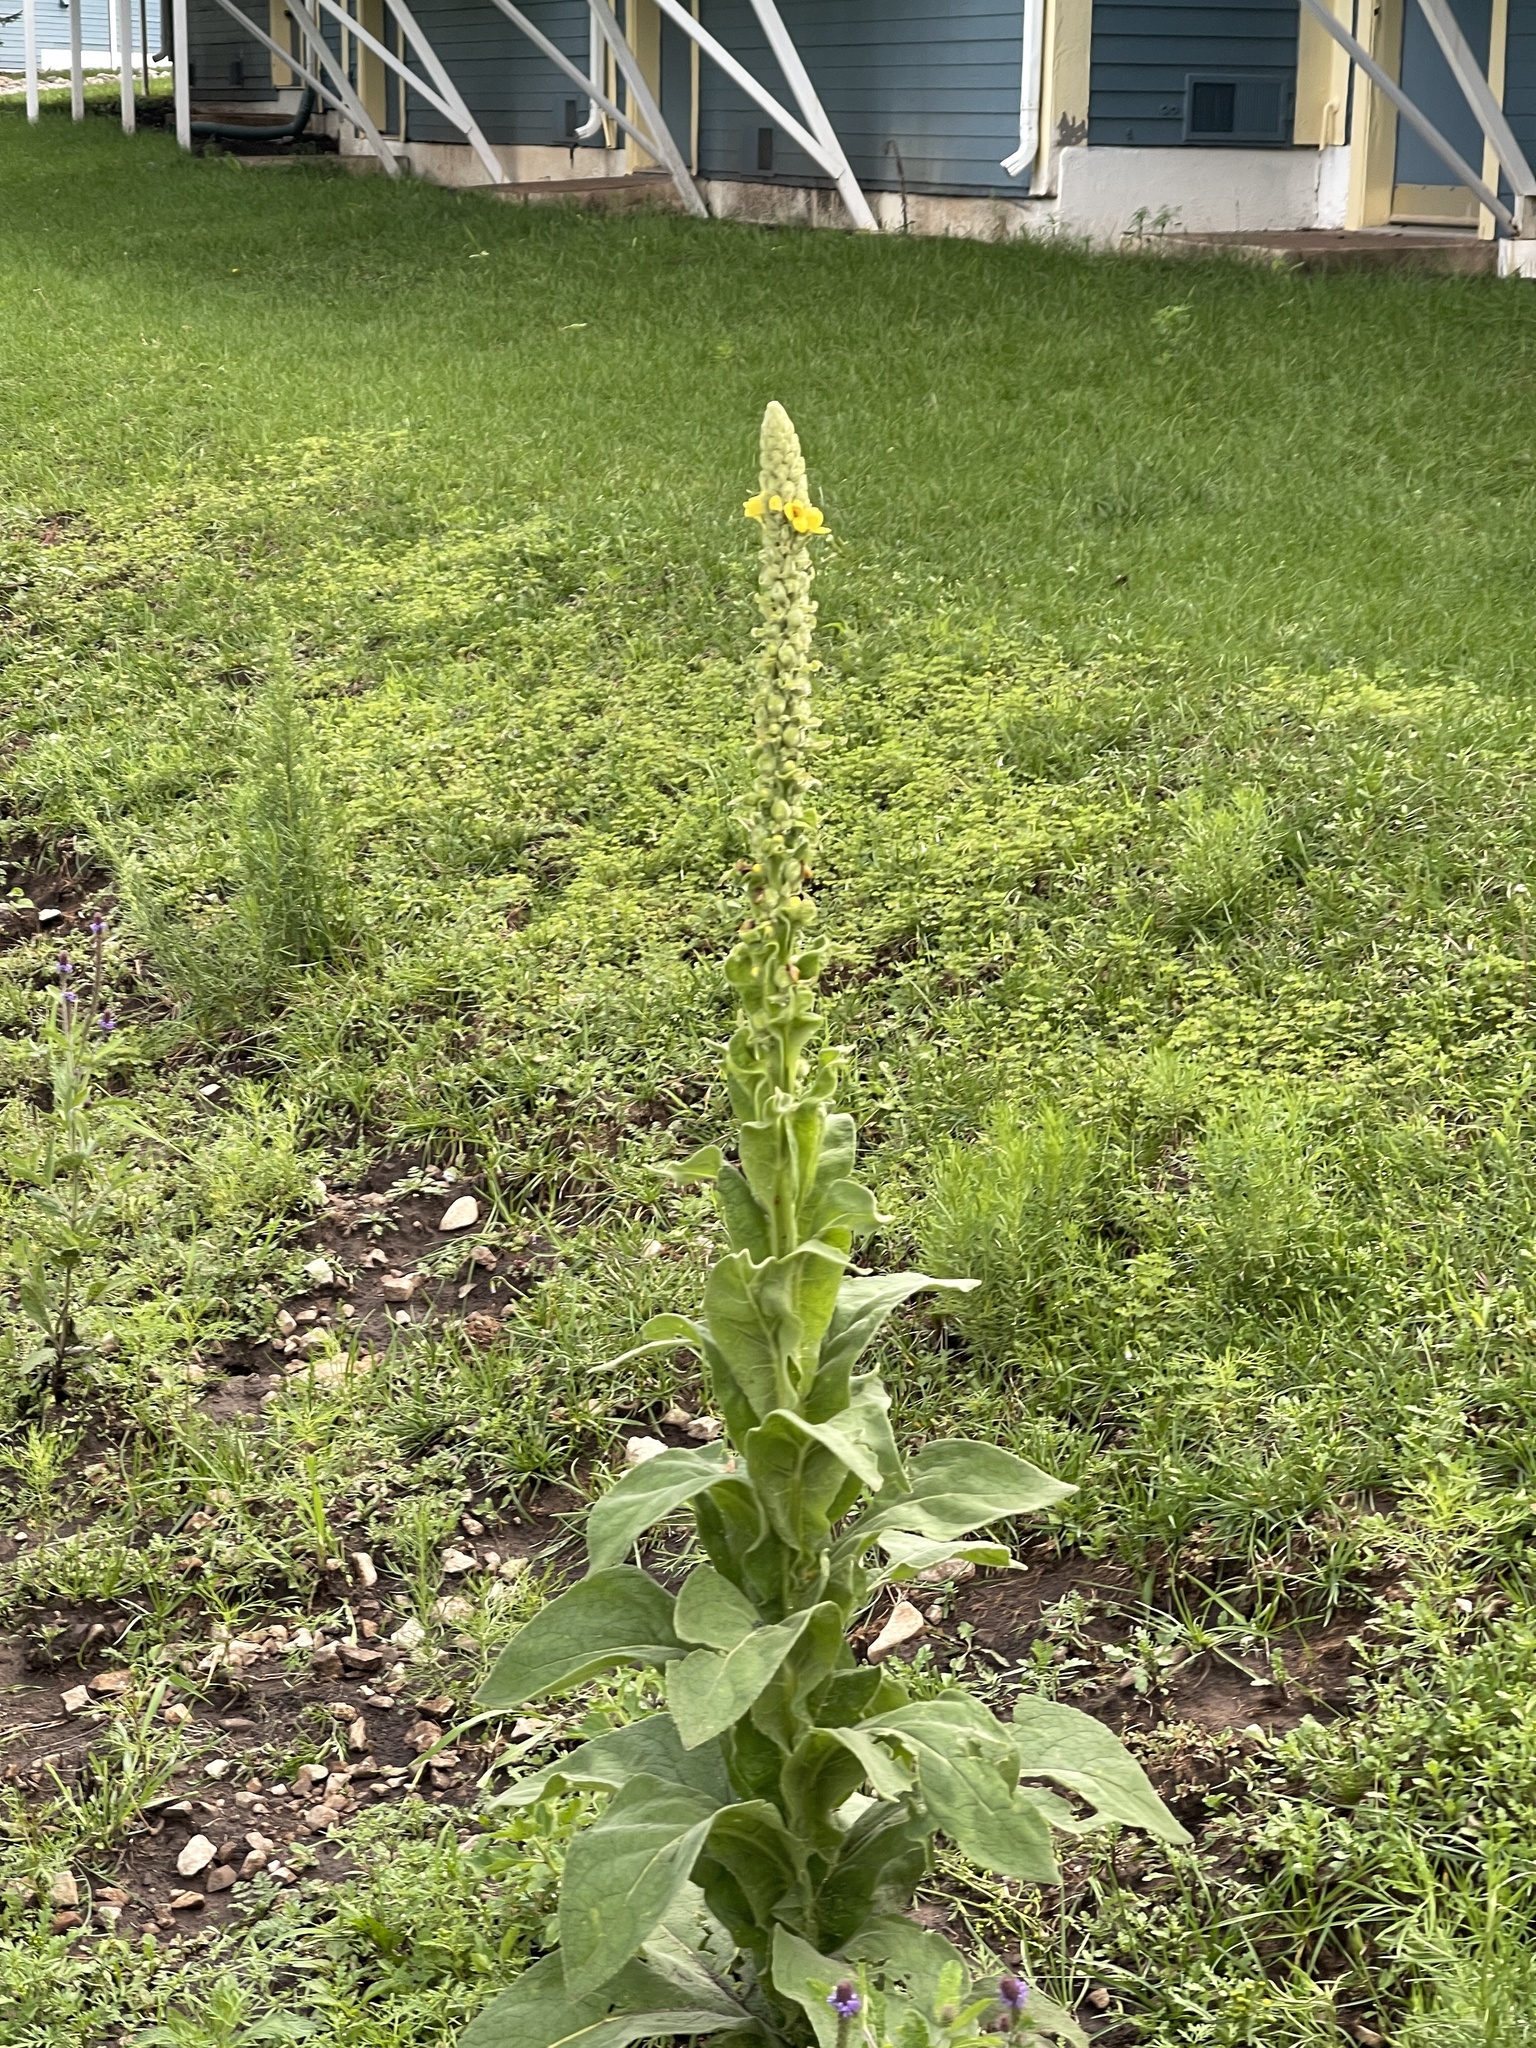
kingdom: Plantae
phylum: Tracheophyta
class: Magnoliopsida
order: Lamiales
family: Scrophulariaceae
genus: Verbascum
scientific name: Verbascum thapsus
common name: Common mullein
